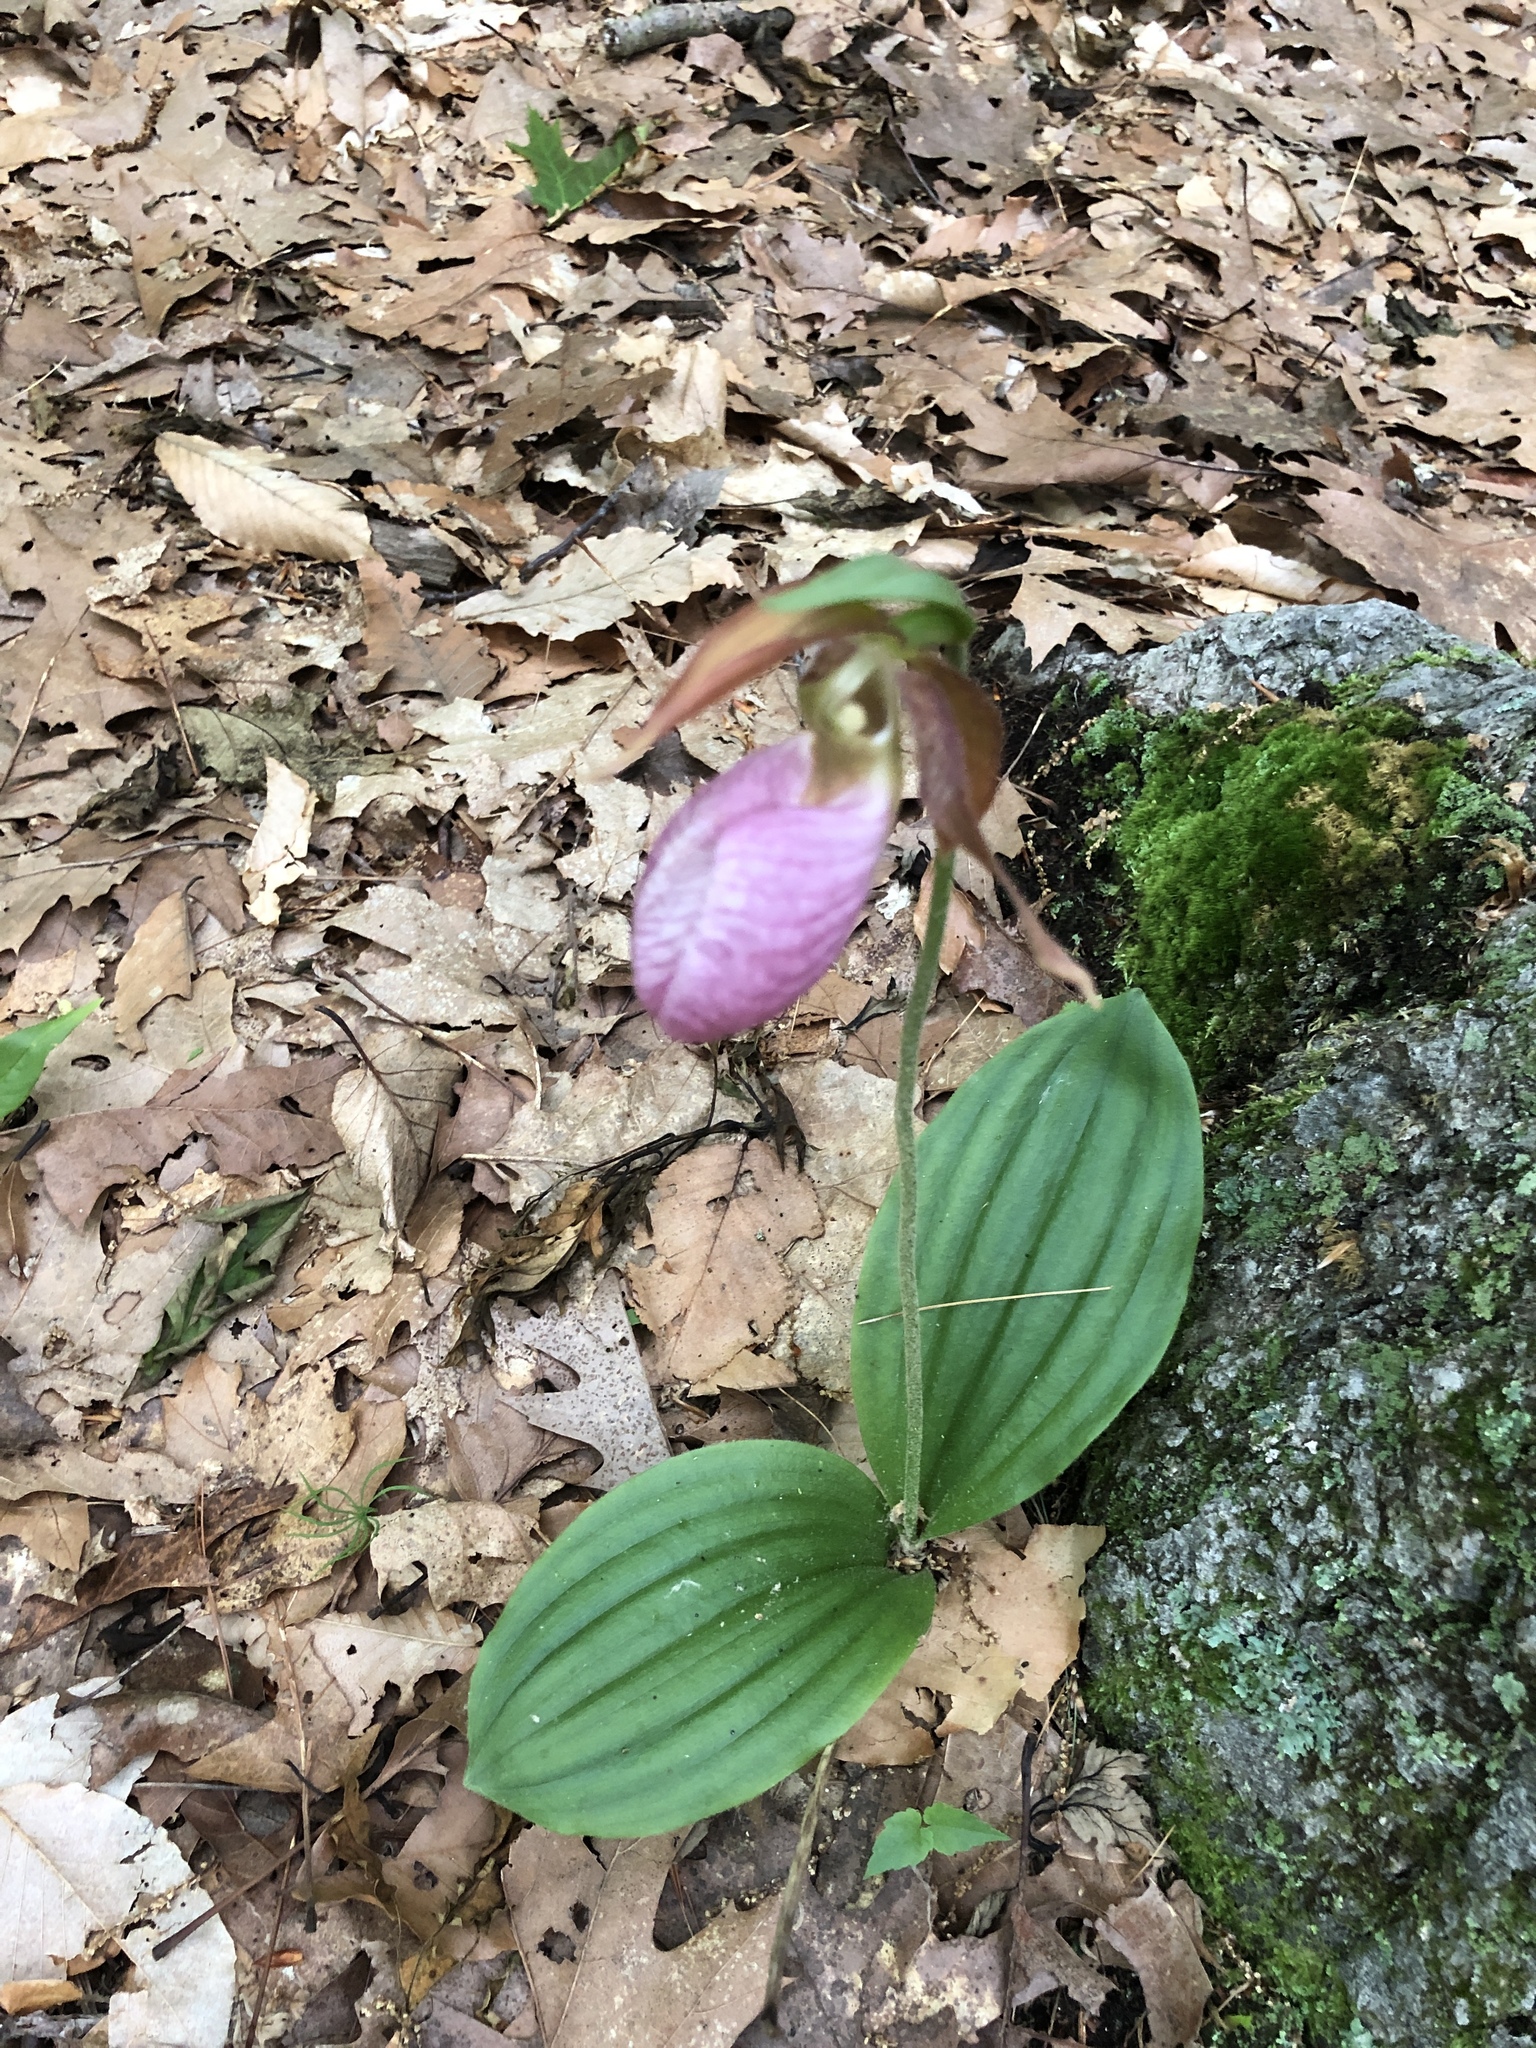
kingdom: Plantae
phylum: Tracheophyta
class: Liliopsida
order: Asparagales
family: Orchidaceae
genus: Cypripedium
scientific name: Cypripedium acaule
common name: Pink lady's-slipper
